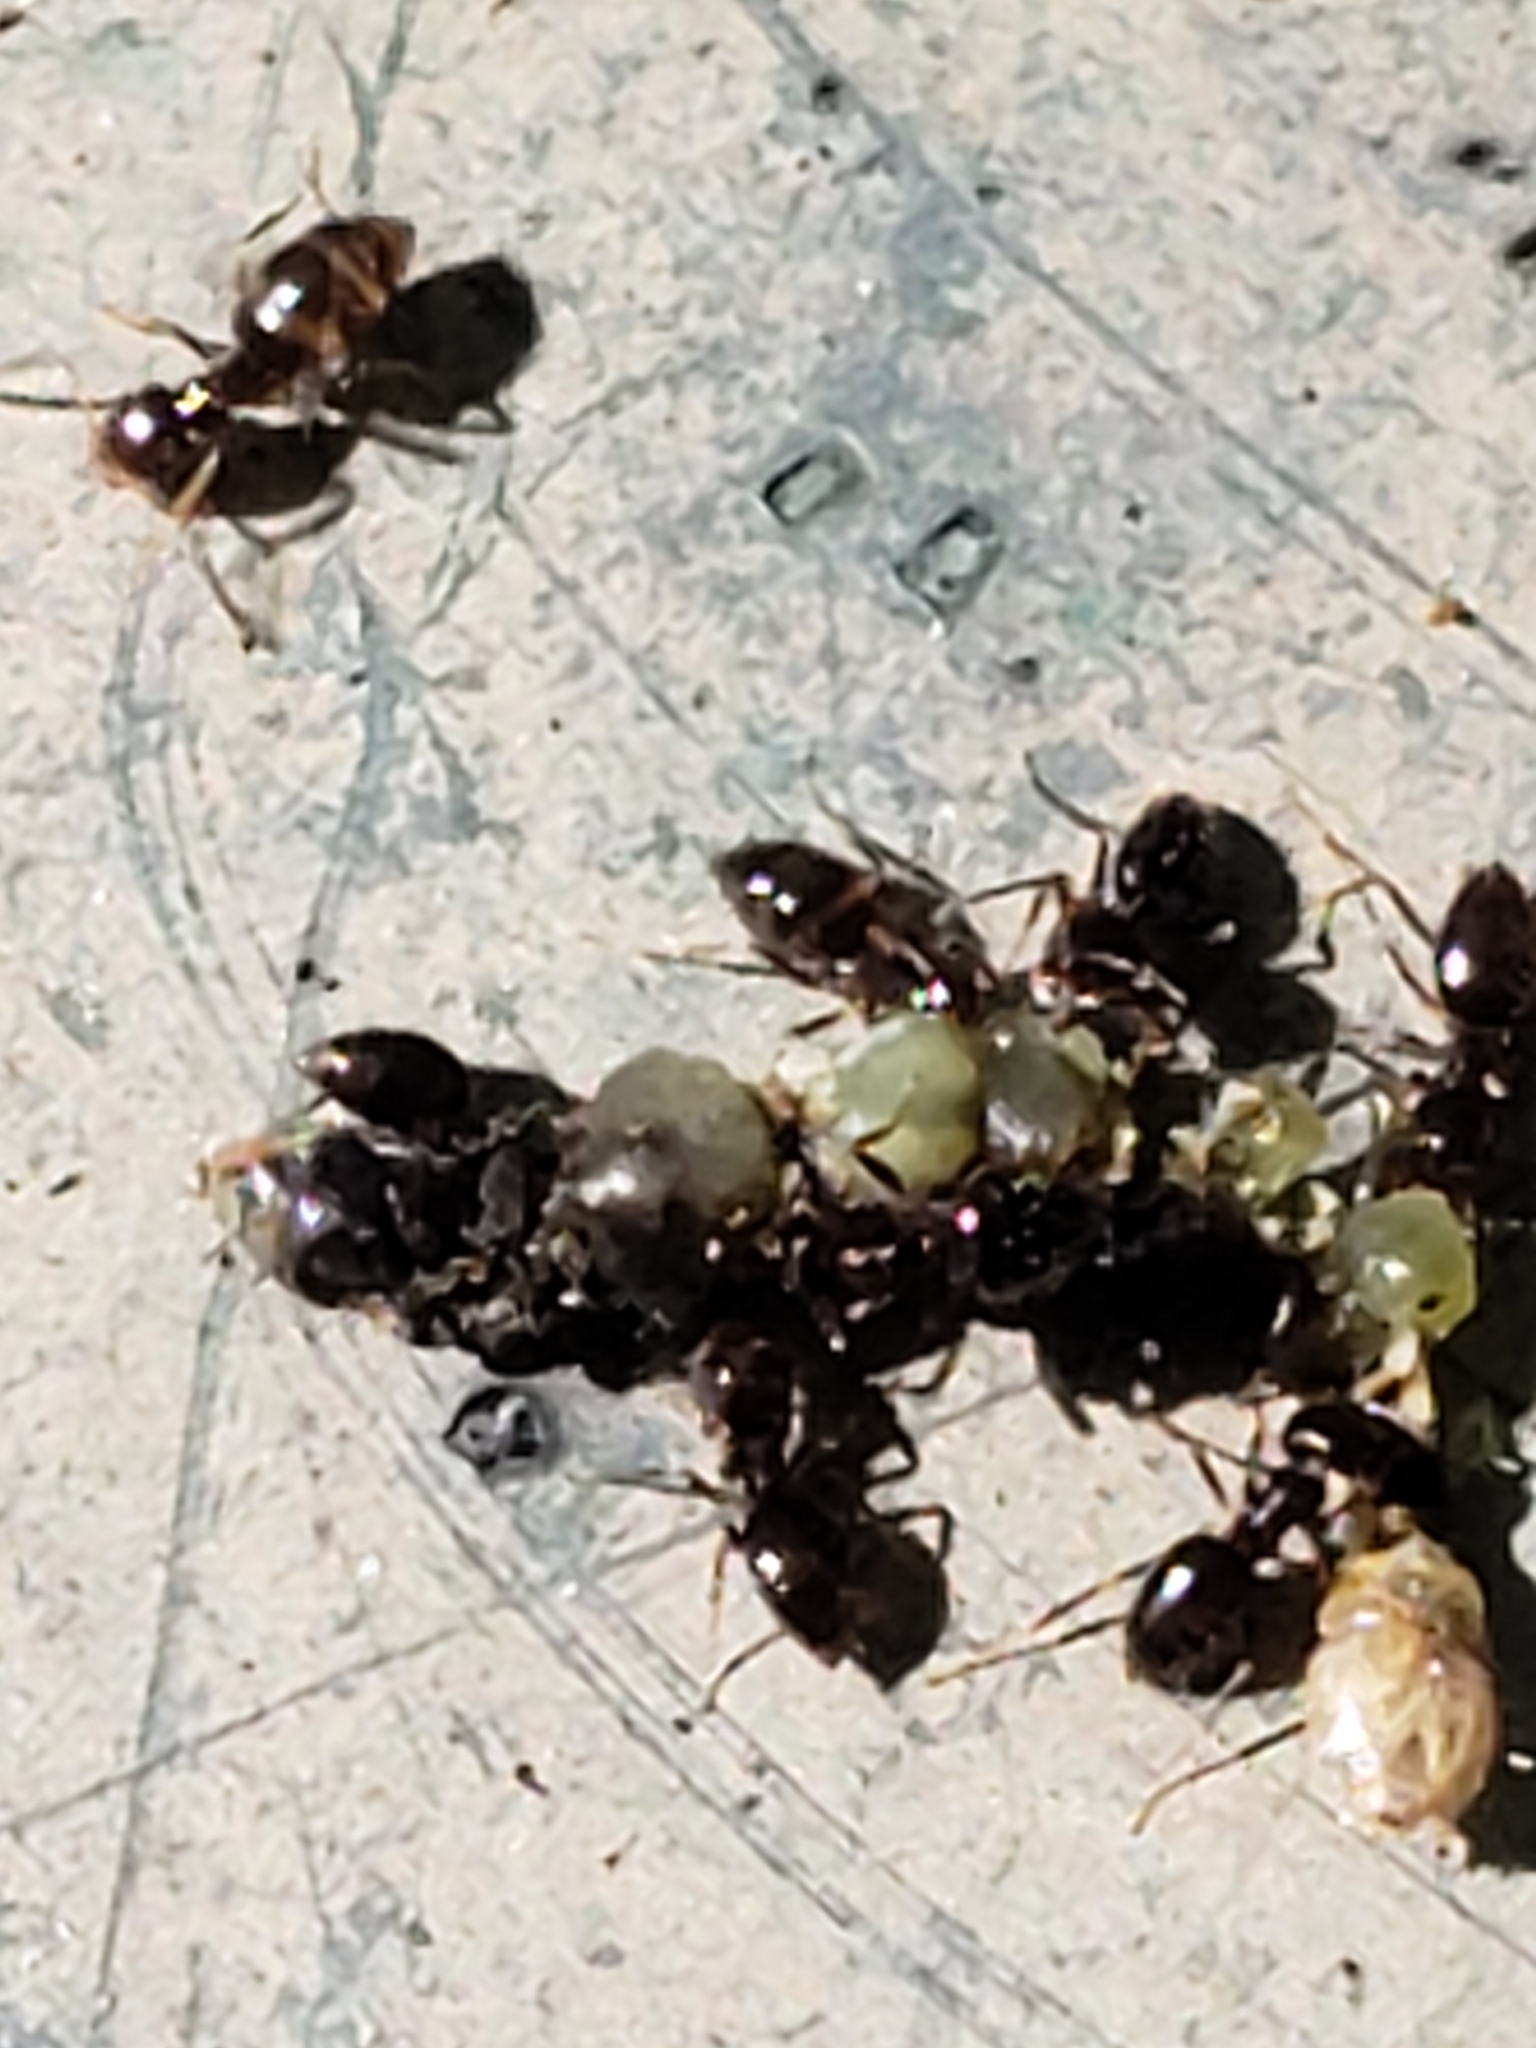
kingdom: Animalia
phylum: Arthropoda
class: Insecta
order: Hymenoptera
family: Formicidae
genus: Brachymyrmex
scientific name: Brachymyrmex patagonicus
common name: Dark rover ant
